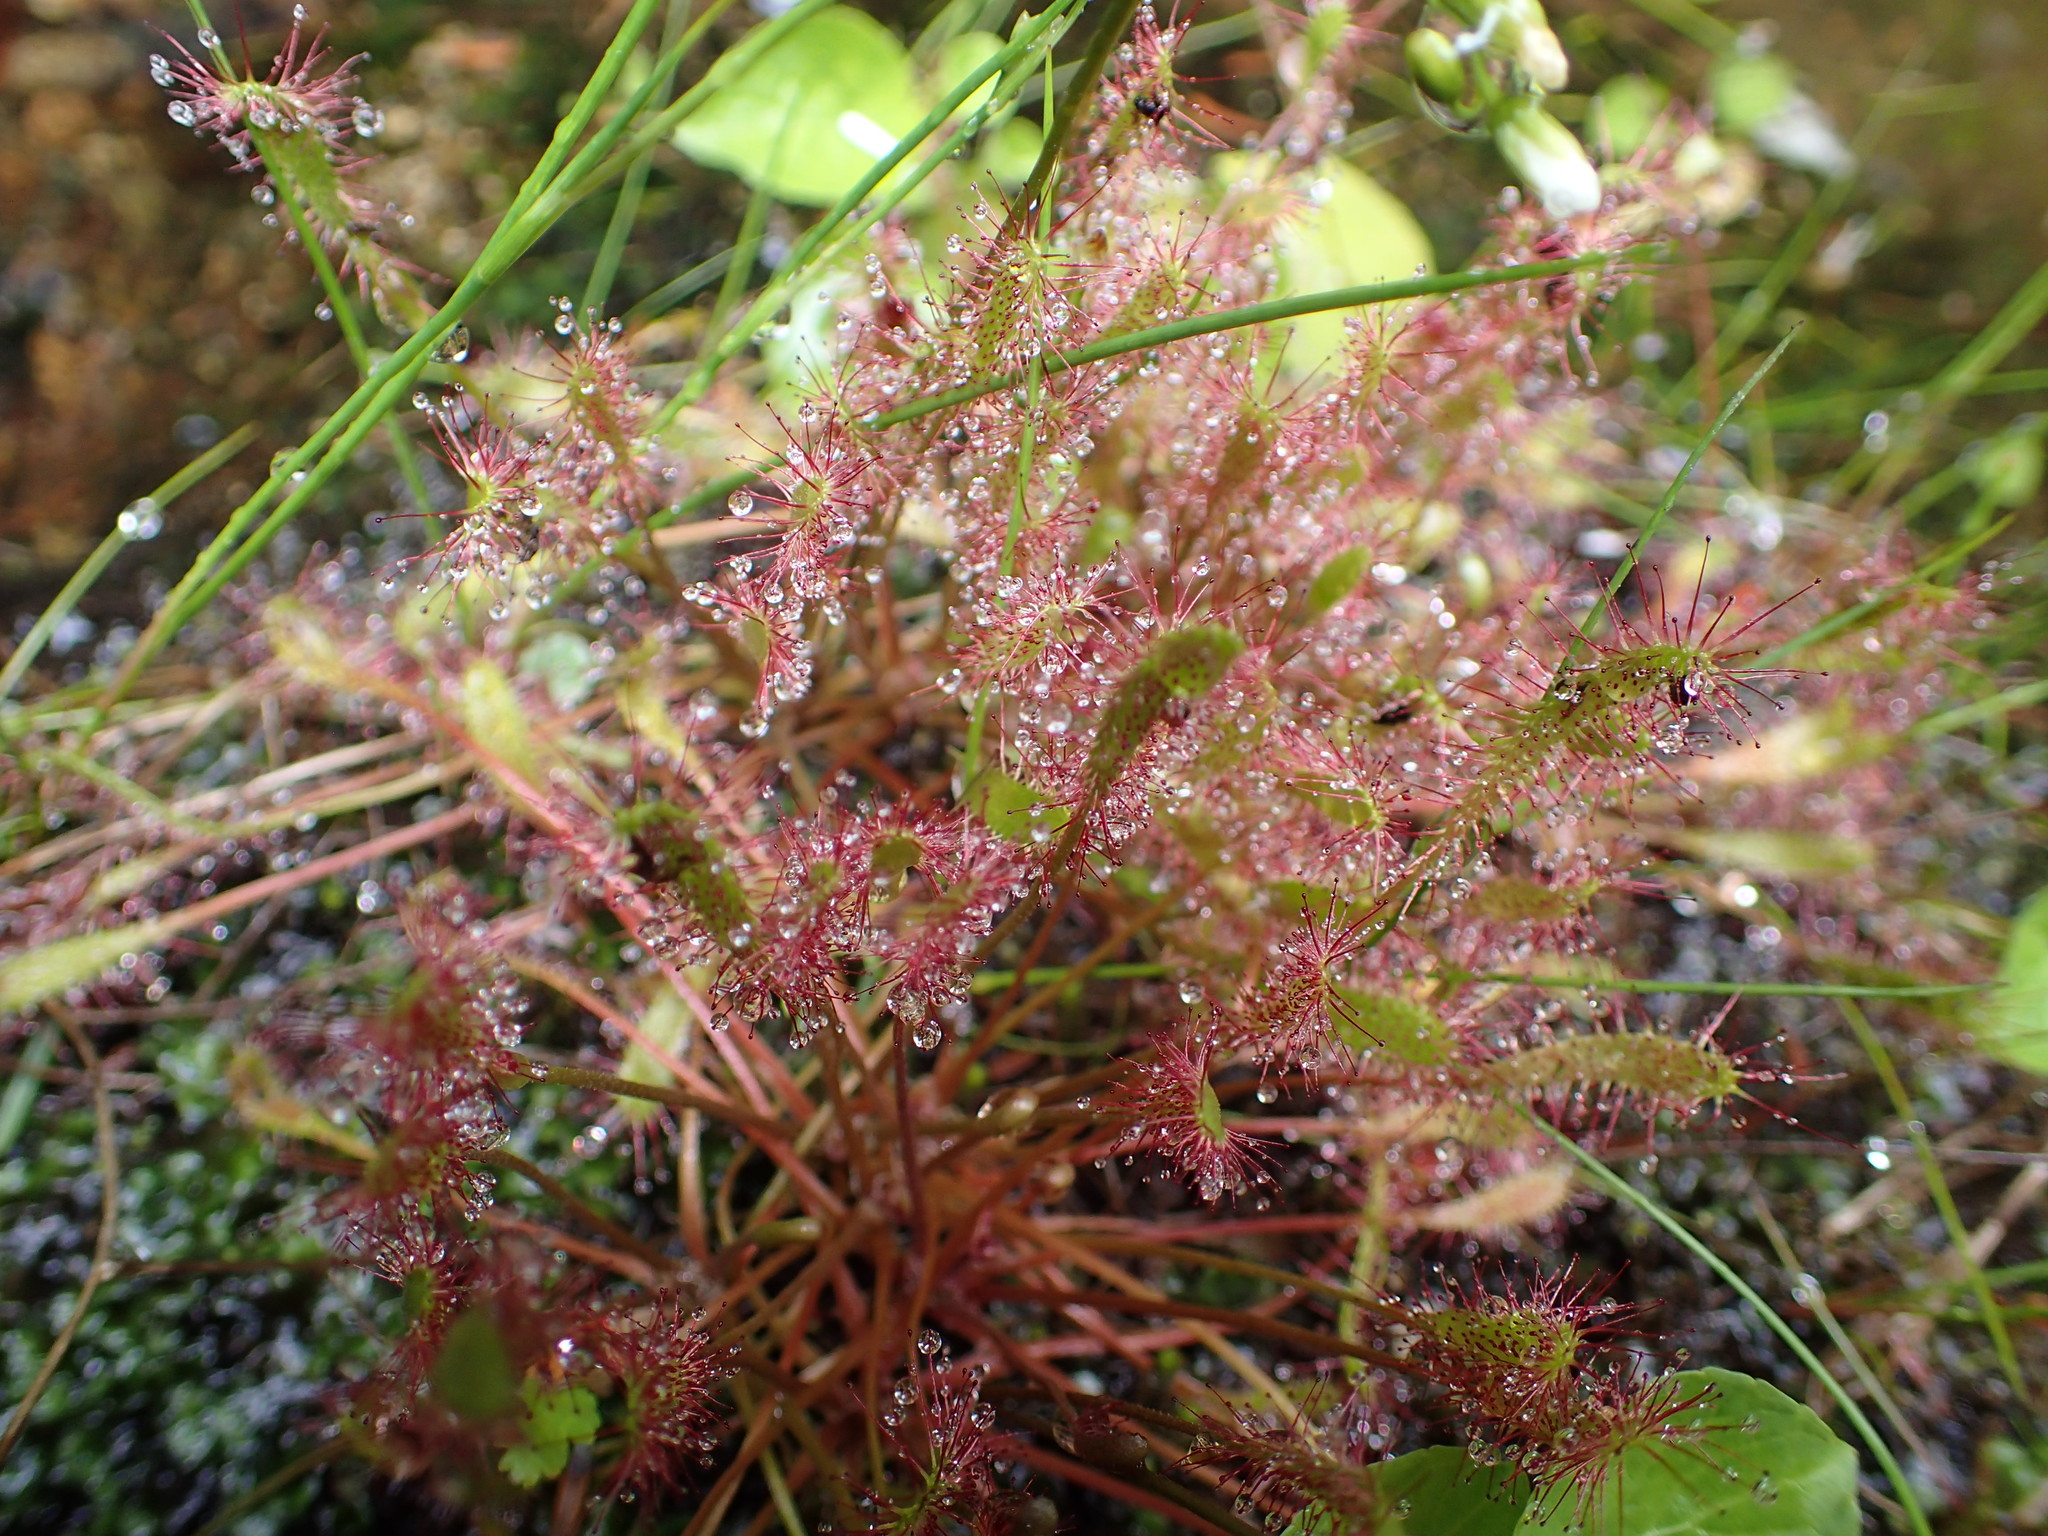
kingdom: Plantae
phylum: Tracheophyta
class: Magnoliopsida
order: Caryophyllales
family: Droseraceae
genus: Drosera
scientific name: Drosera anglica
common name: Great sundew
